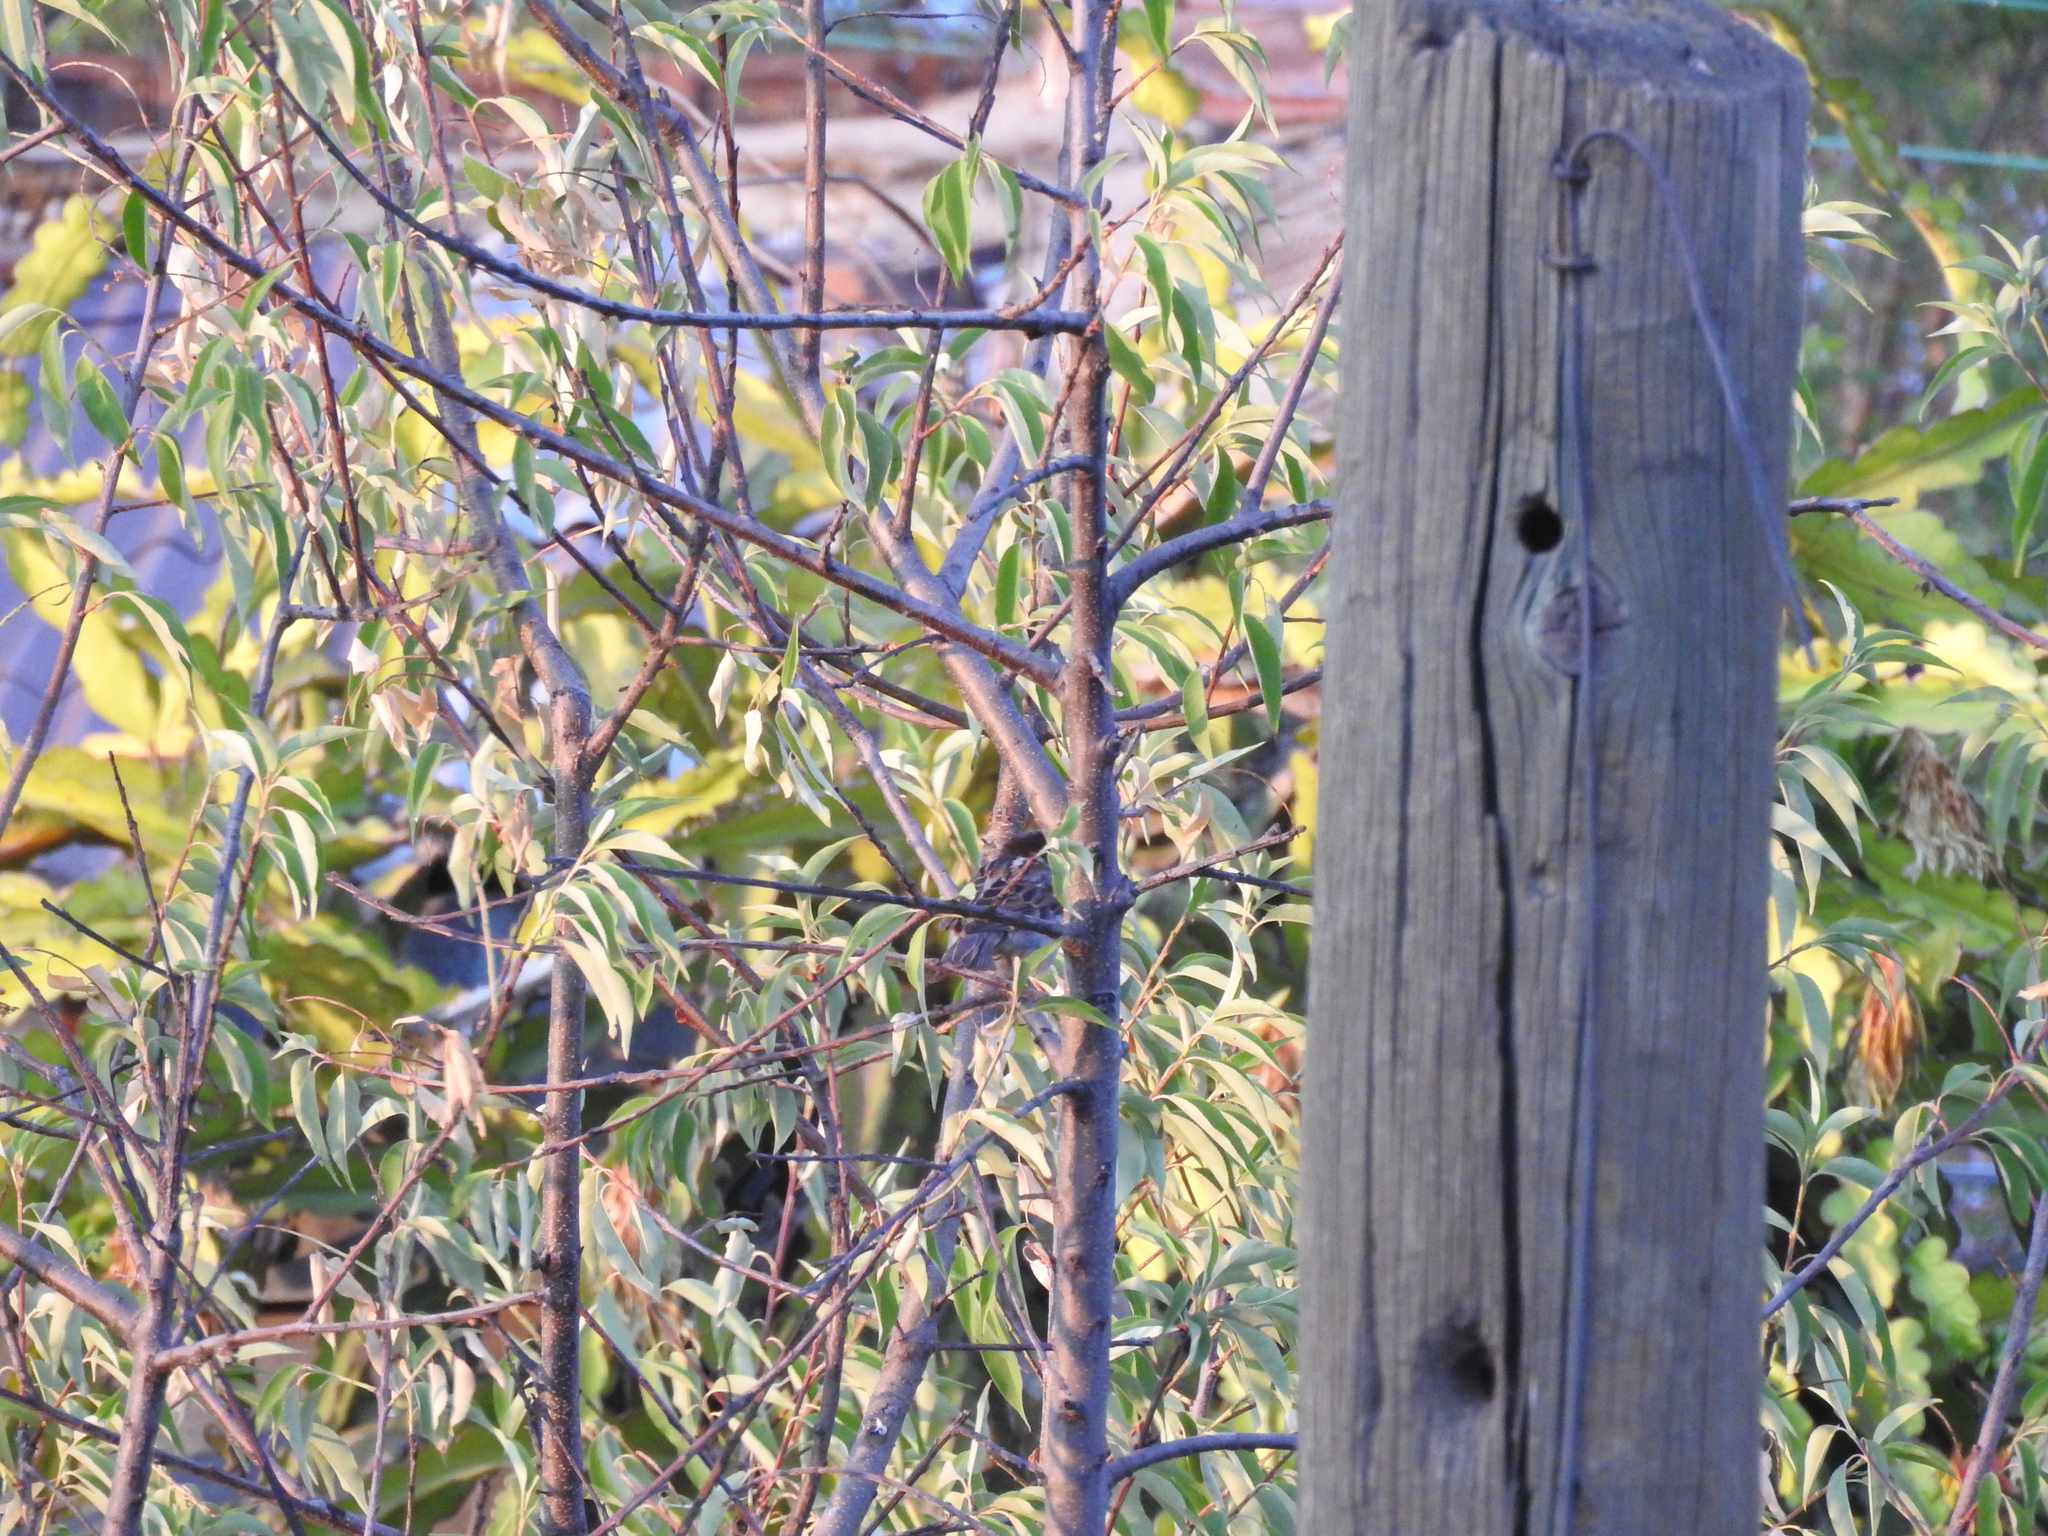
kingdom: Animalia
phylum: Chordata
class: Aves
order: Passeriformes
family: Passeridae
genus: Passer
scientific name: Passer domesticus
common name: House sparrow
